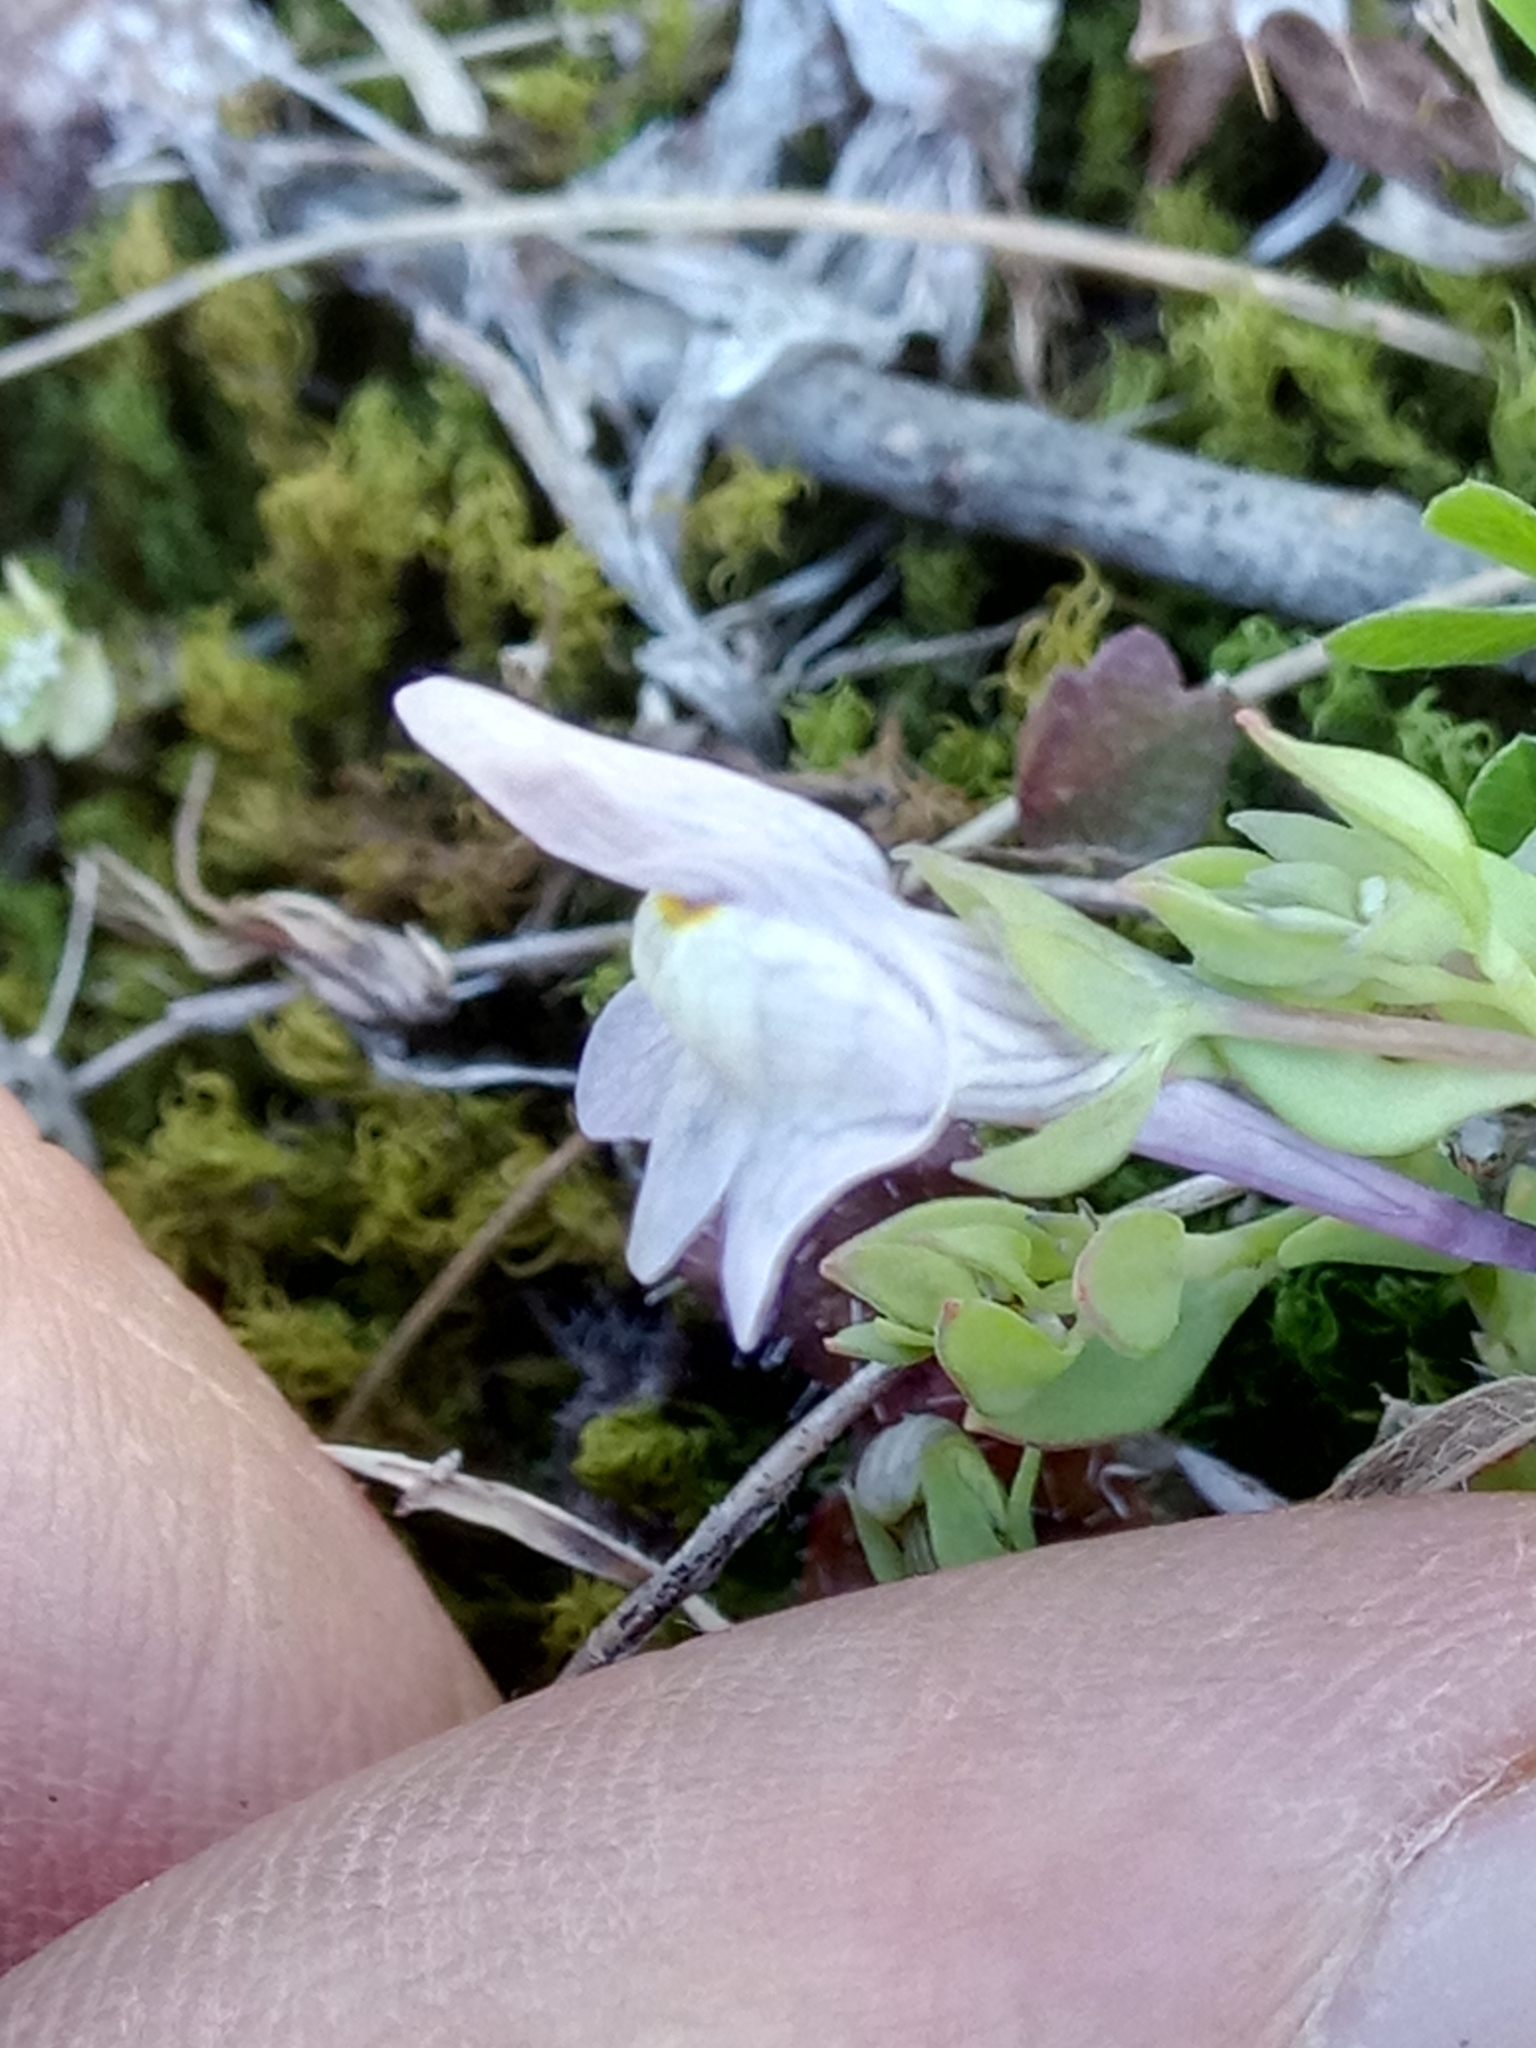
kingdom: Plantae
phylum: Tracheophyta
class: Magnoliopsida
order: Lamiales
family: Plantaginaceae
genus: Linaria
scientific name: Linaria reflexa
